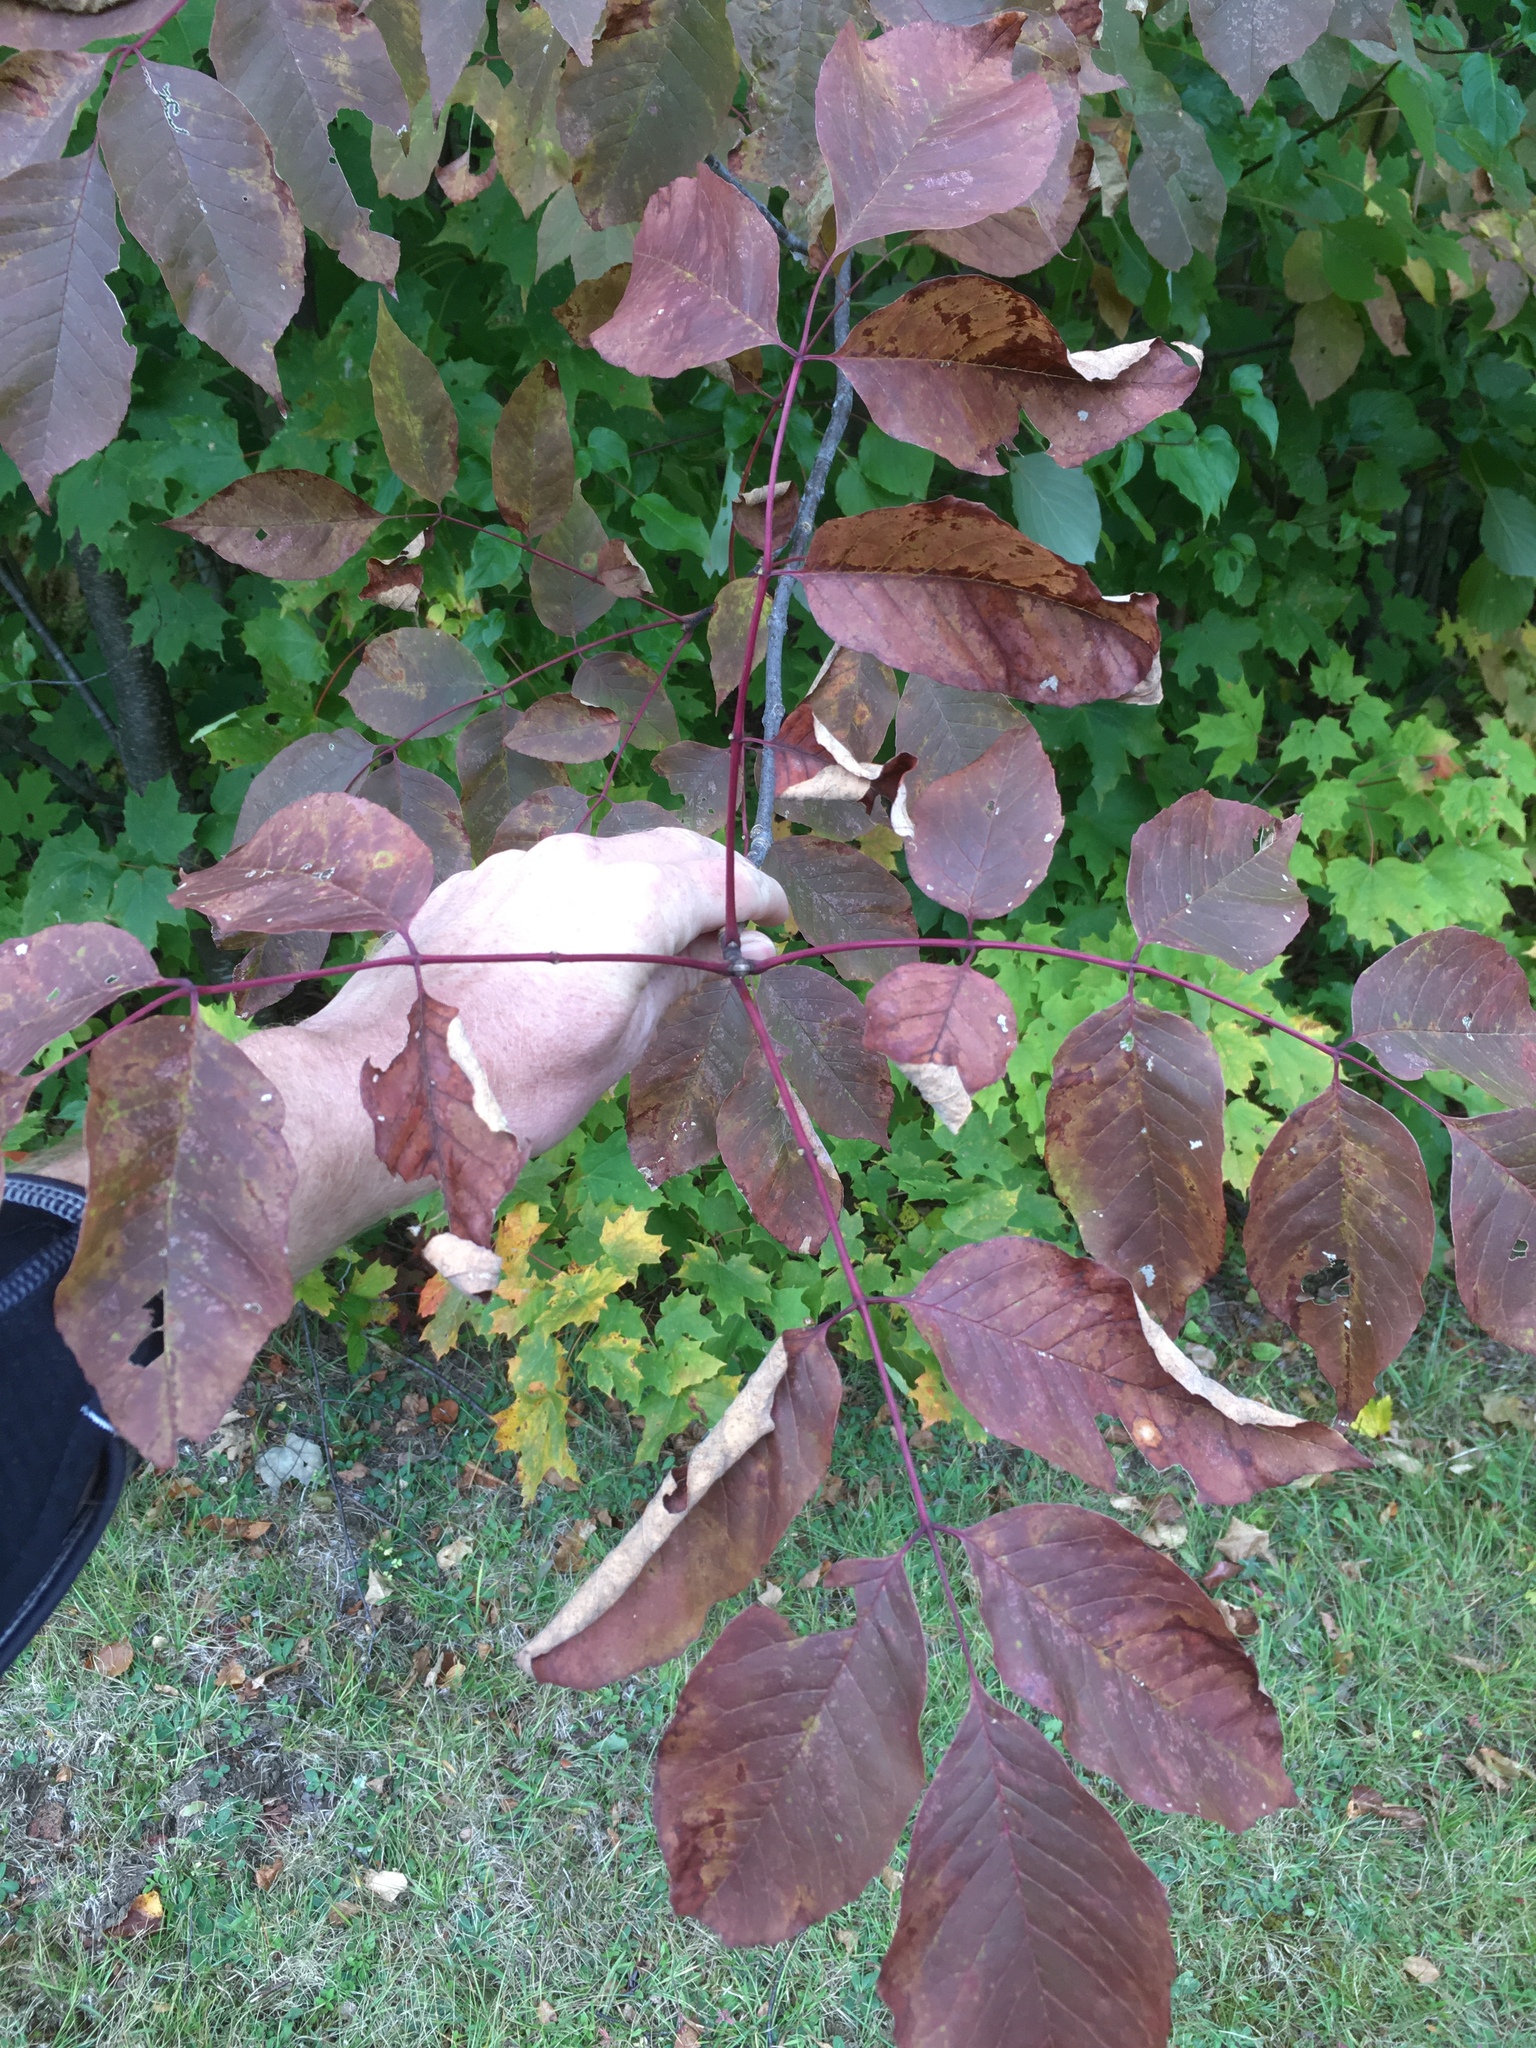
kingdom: Plantae
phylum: Tracheophyta
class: Magnoliopsida
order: Lamiales
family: Oleaceae
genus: Fraxinus
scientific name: Fraxinus americana
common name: White ash
